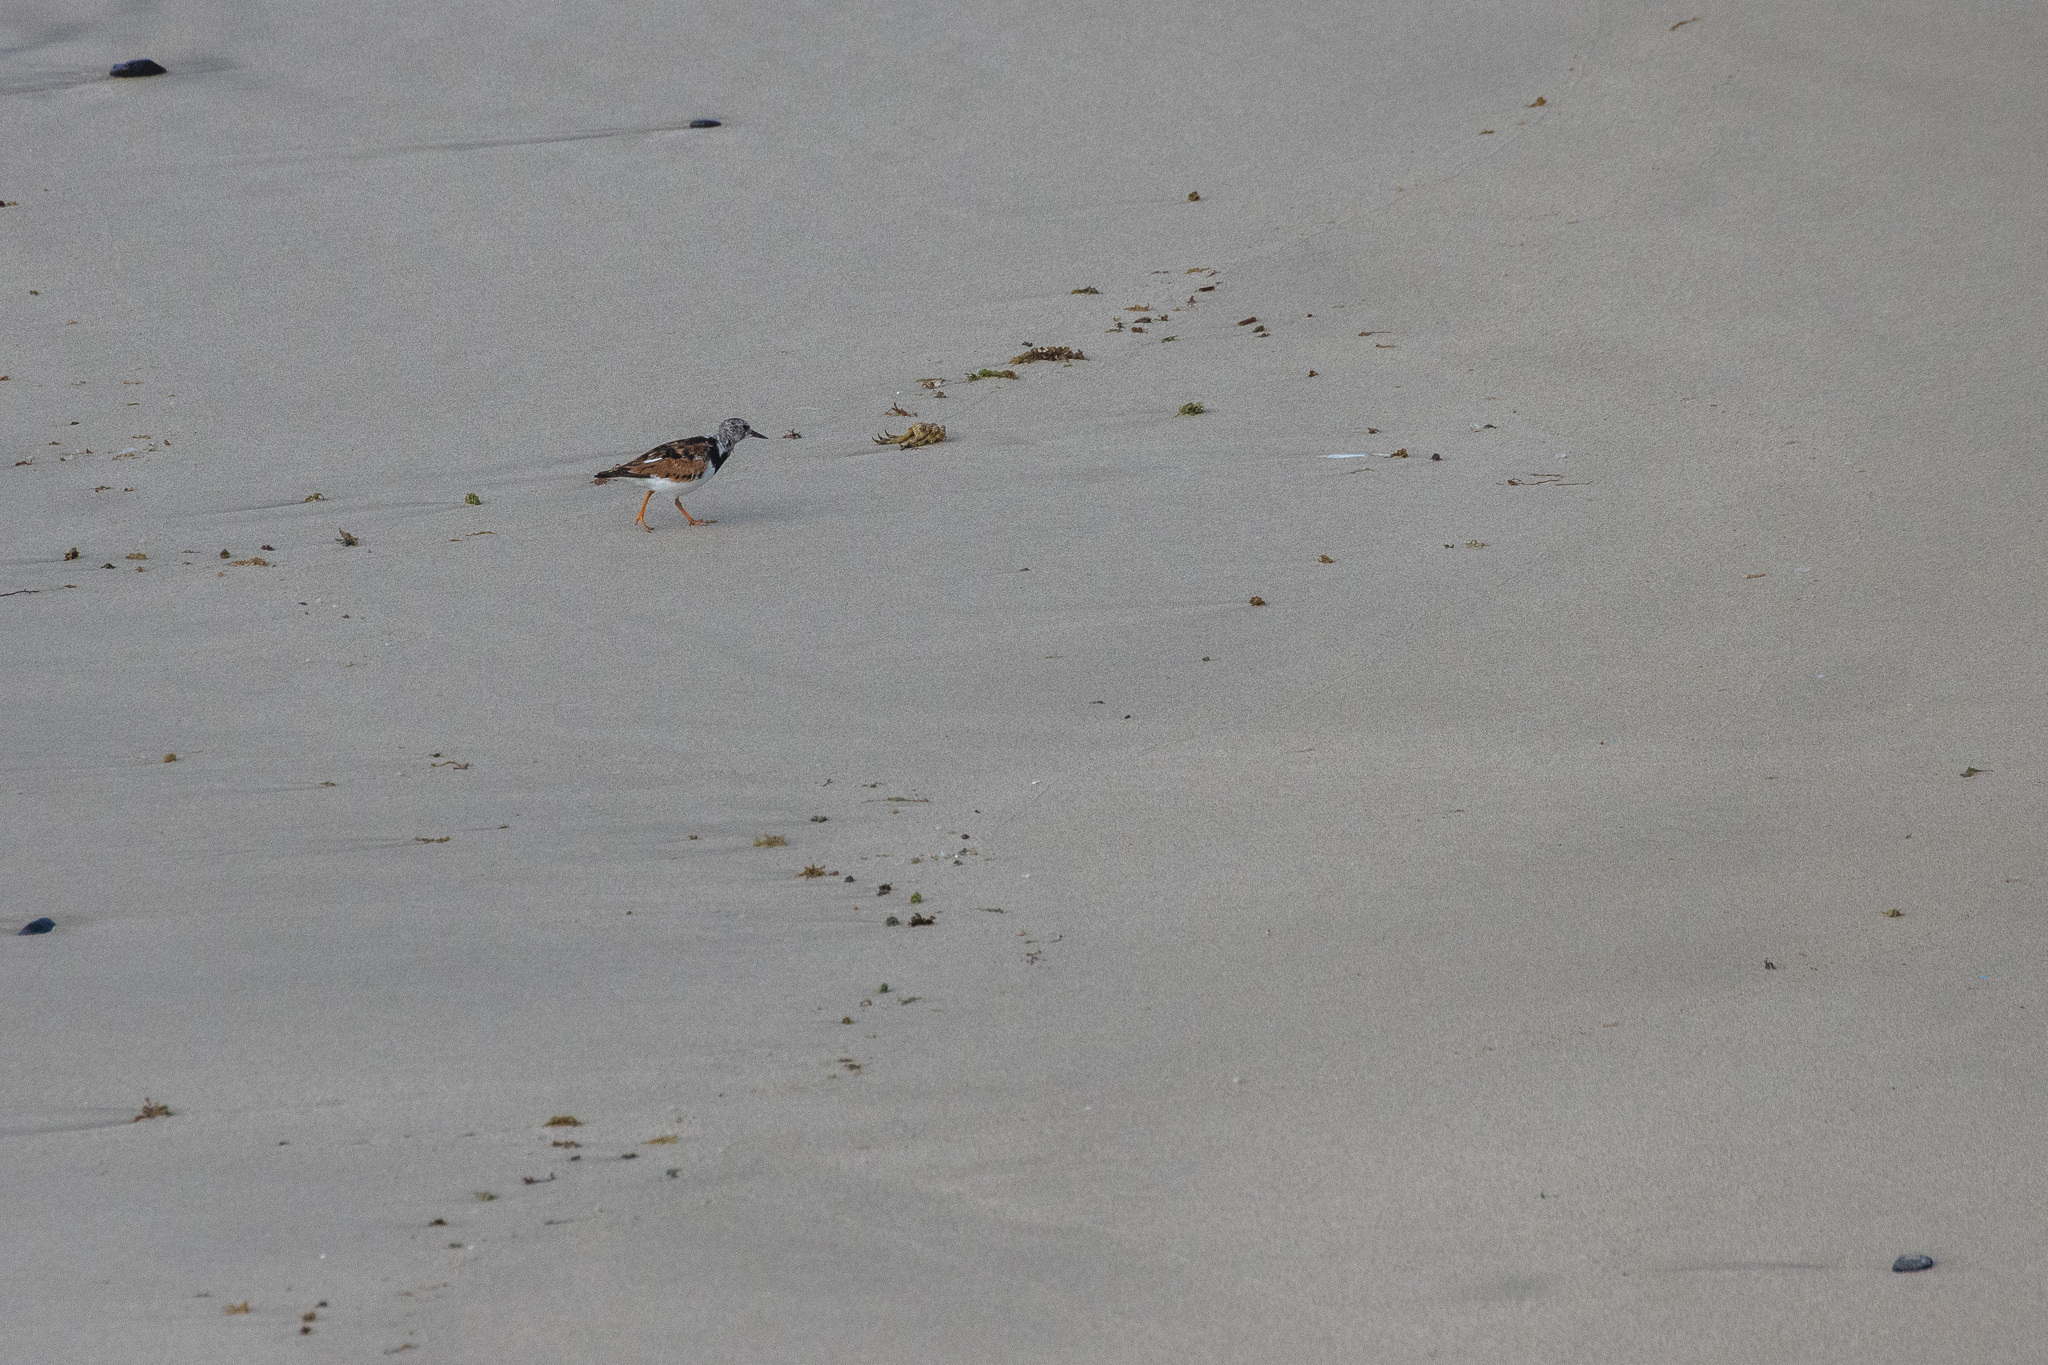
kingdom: Animalia
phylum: Chordata
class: Aves
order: Charadriiformes
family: Scolopacidae
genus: Arenaria
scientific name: Arenaria interpres
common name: Ruddy turnstone
